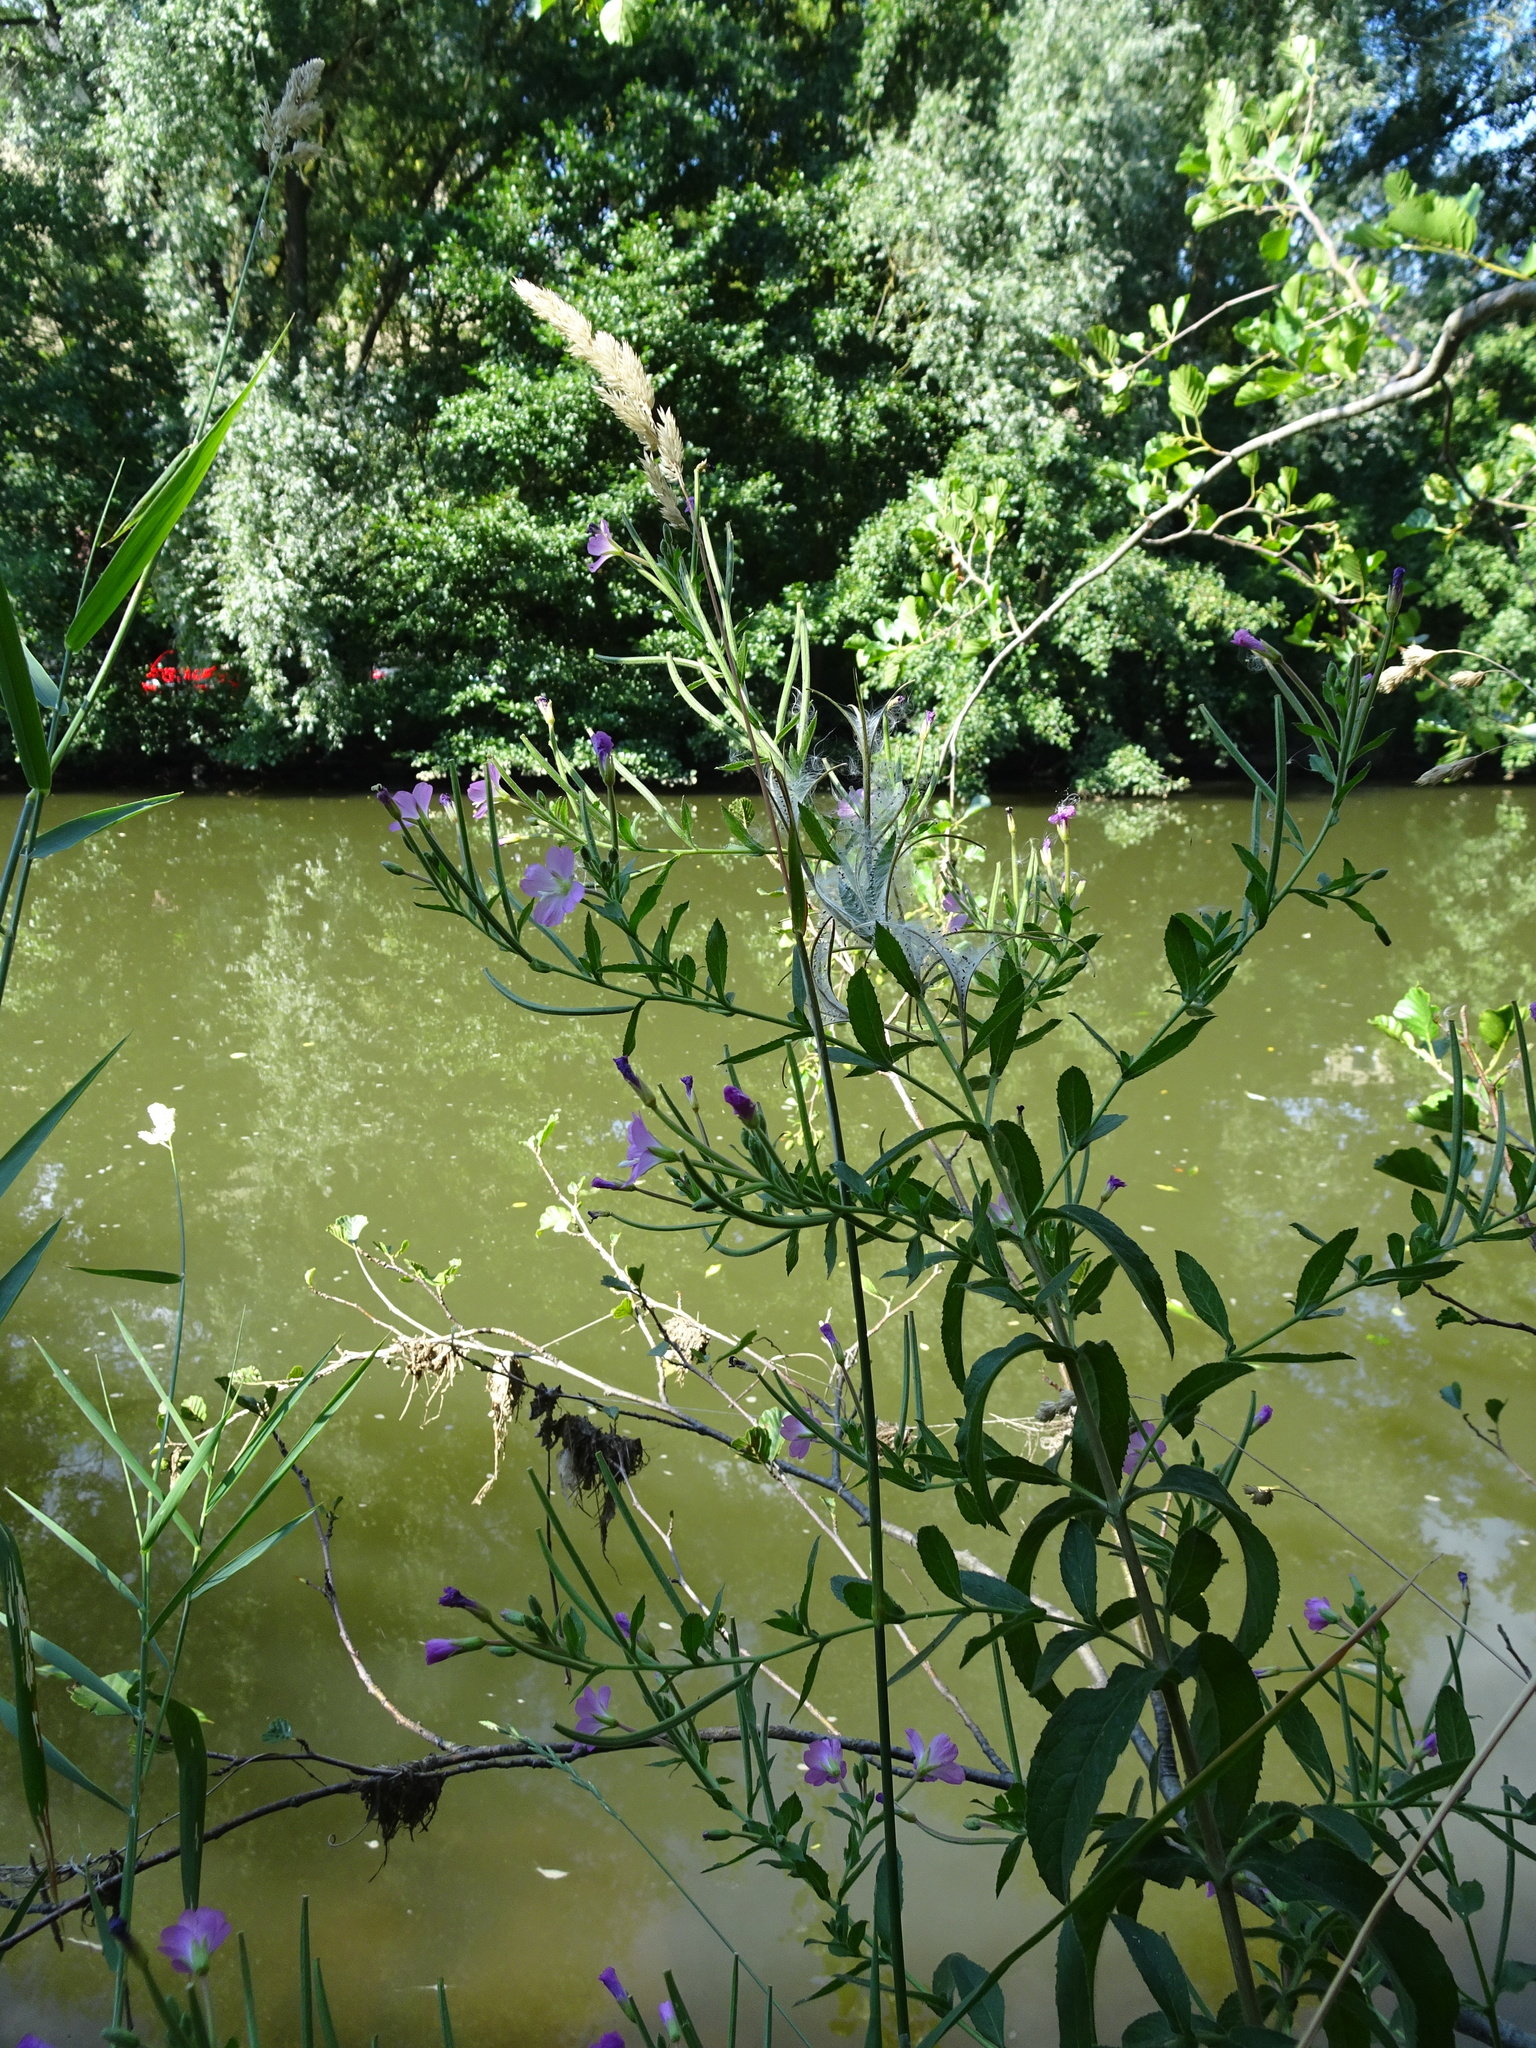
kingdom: Plantae
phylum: Tracheophyta
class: Magnoliopsida
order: Myrtales
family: Onagraceae
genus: Epilobium
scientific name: Epilobium hirsutum
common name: Great willowherb
